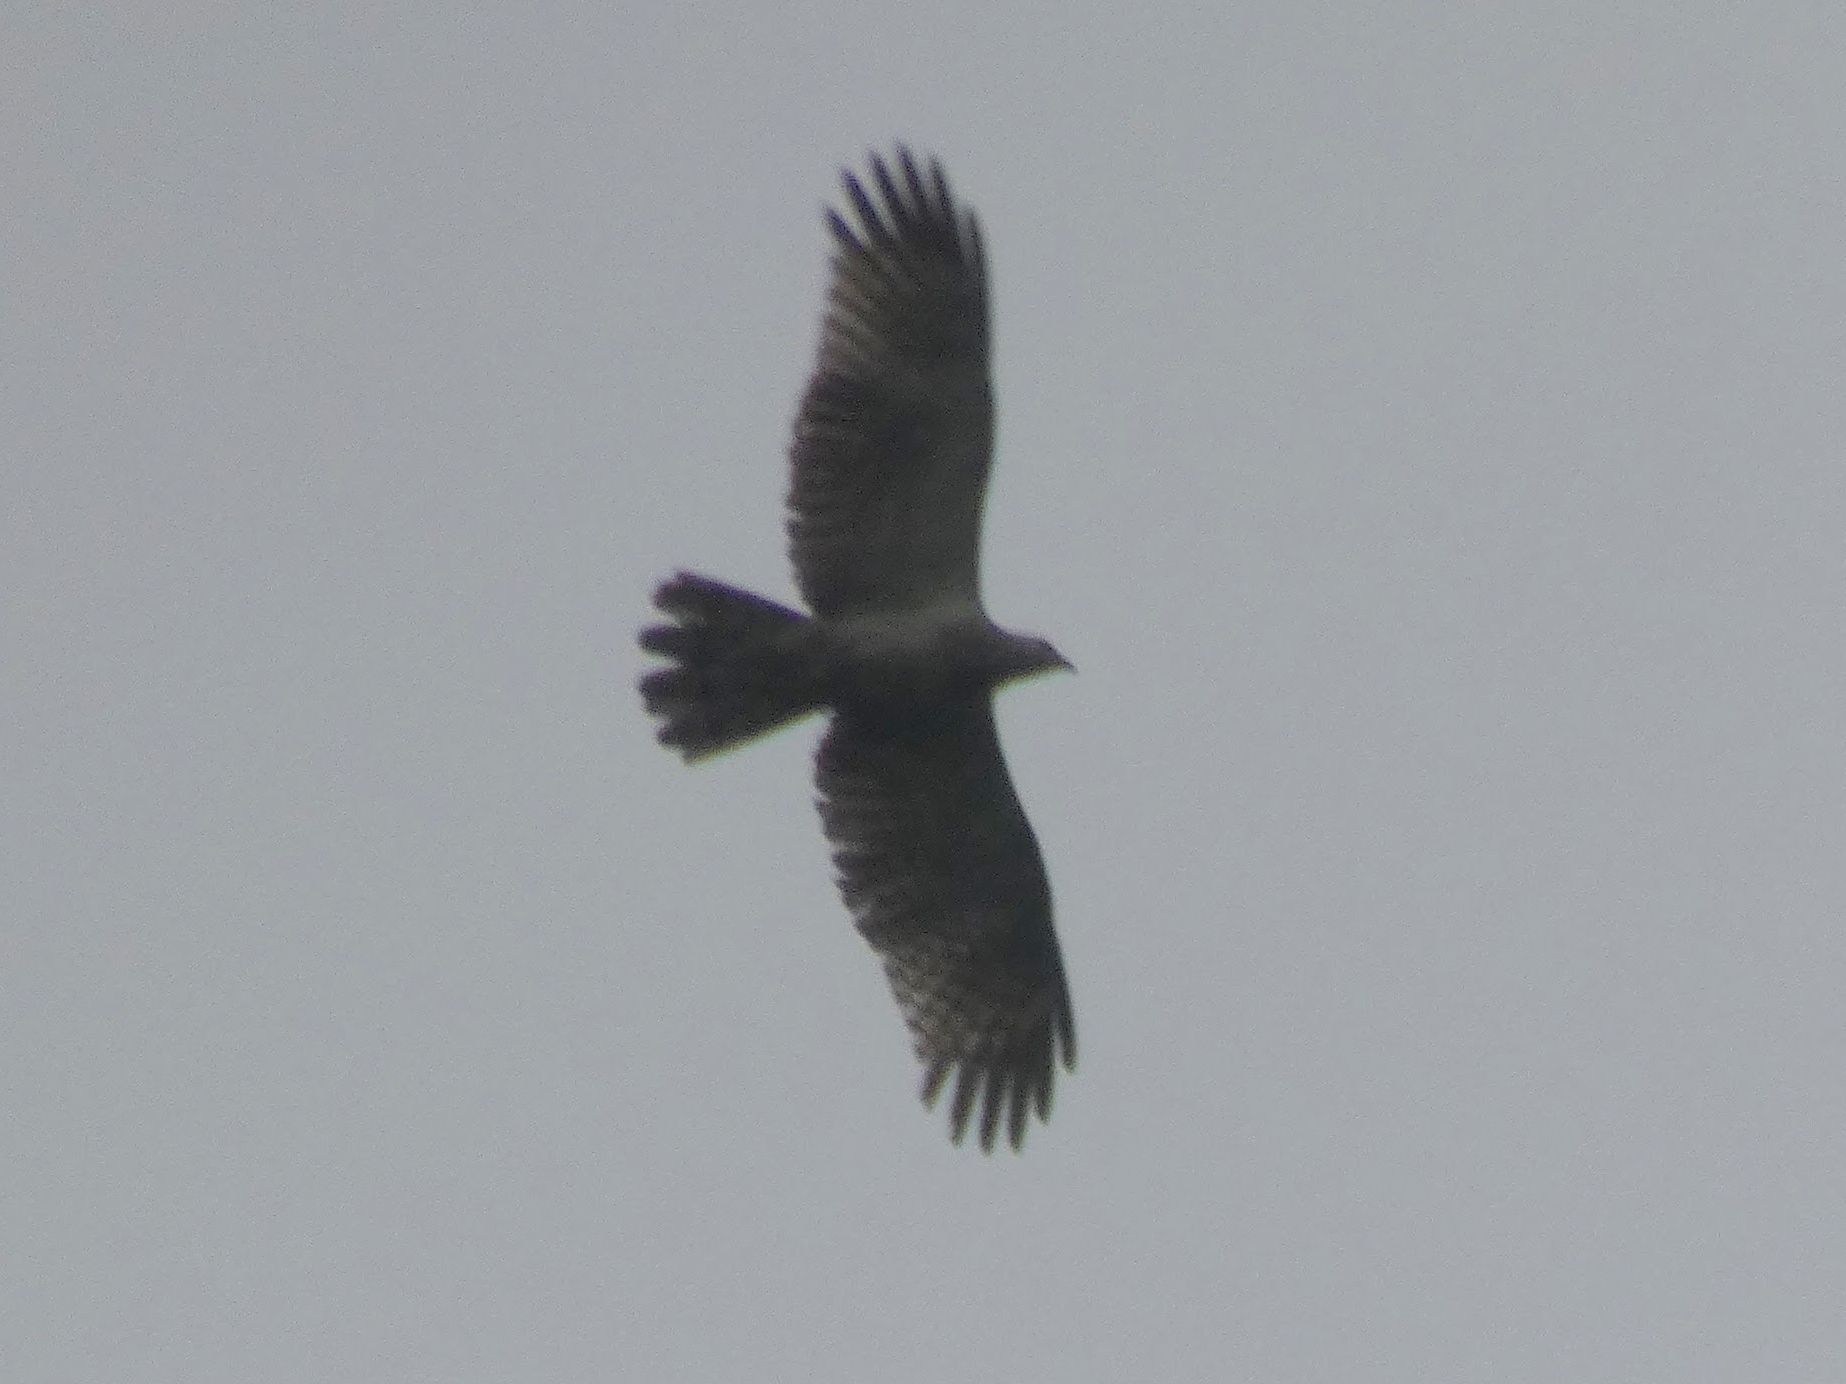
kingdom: Animalia
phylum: Chordata
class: Aves
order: Accipitriformes
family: Accipitridae
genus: Pernis
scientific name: Pernis ptilorhynchus
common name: Crested honey buzzard
